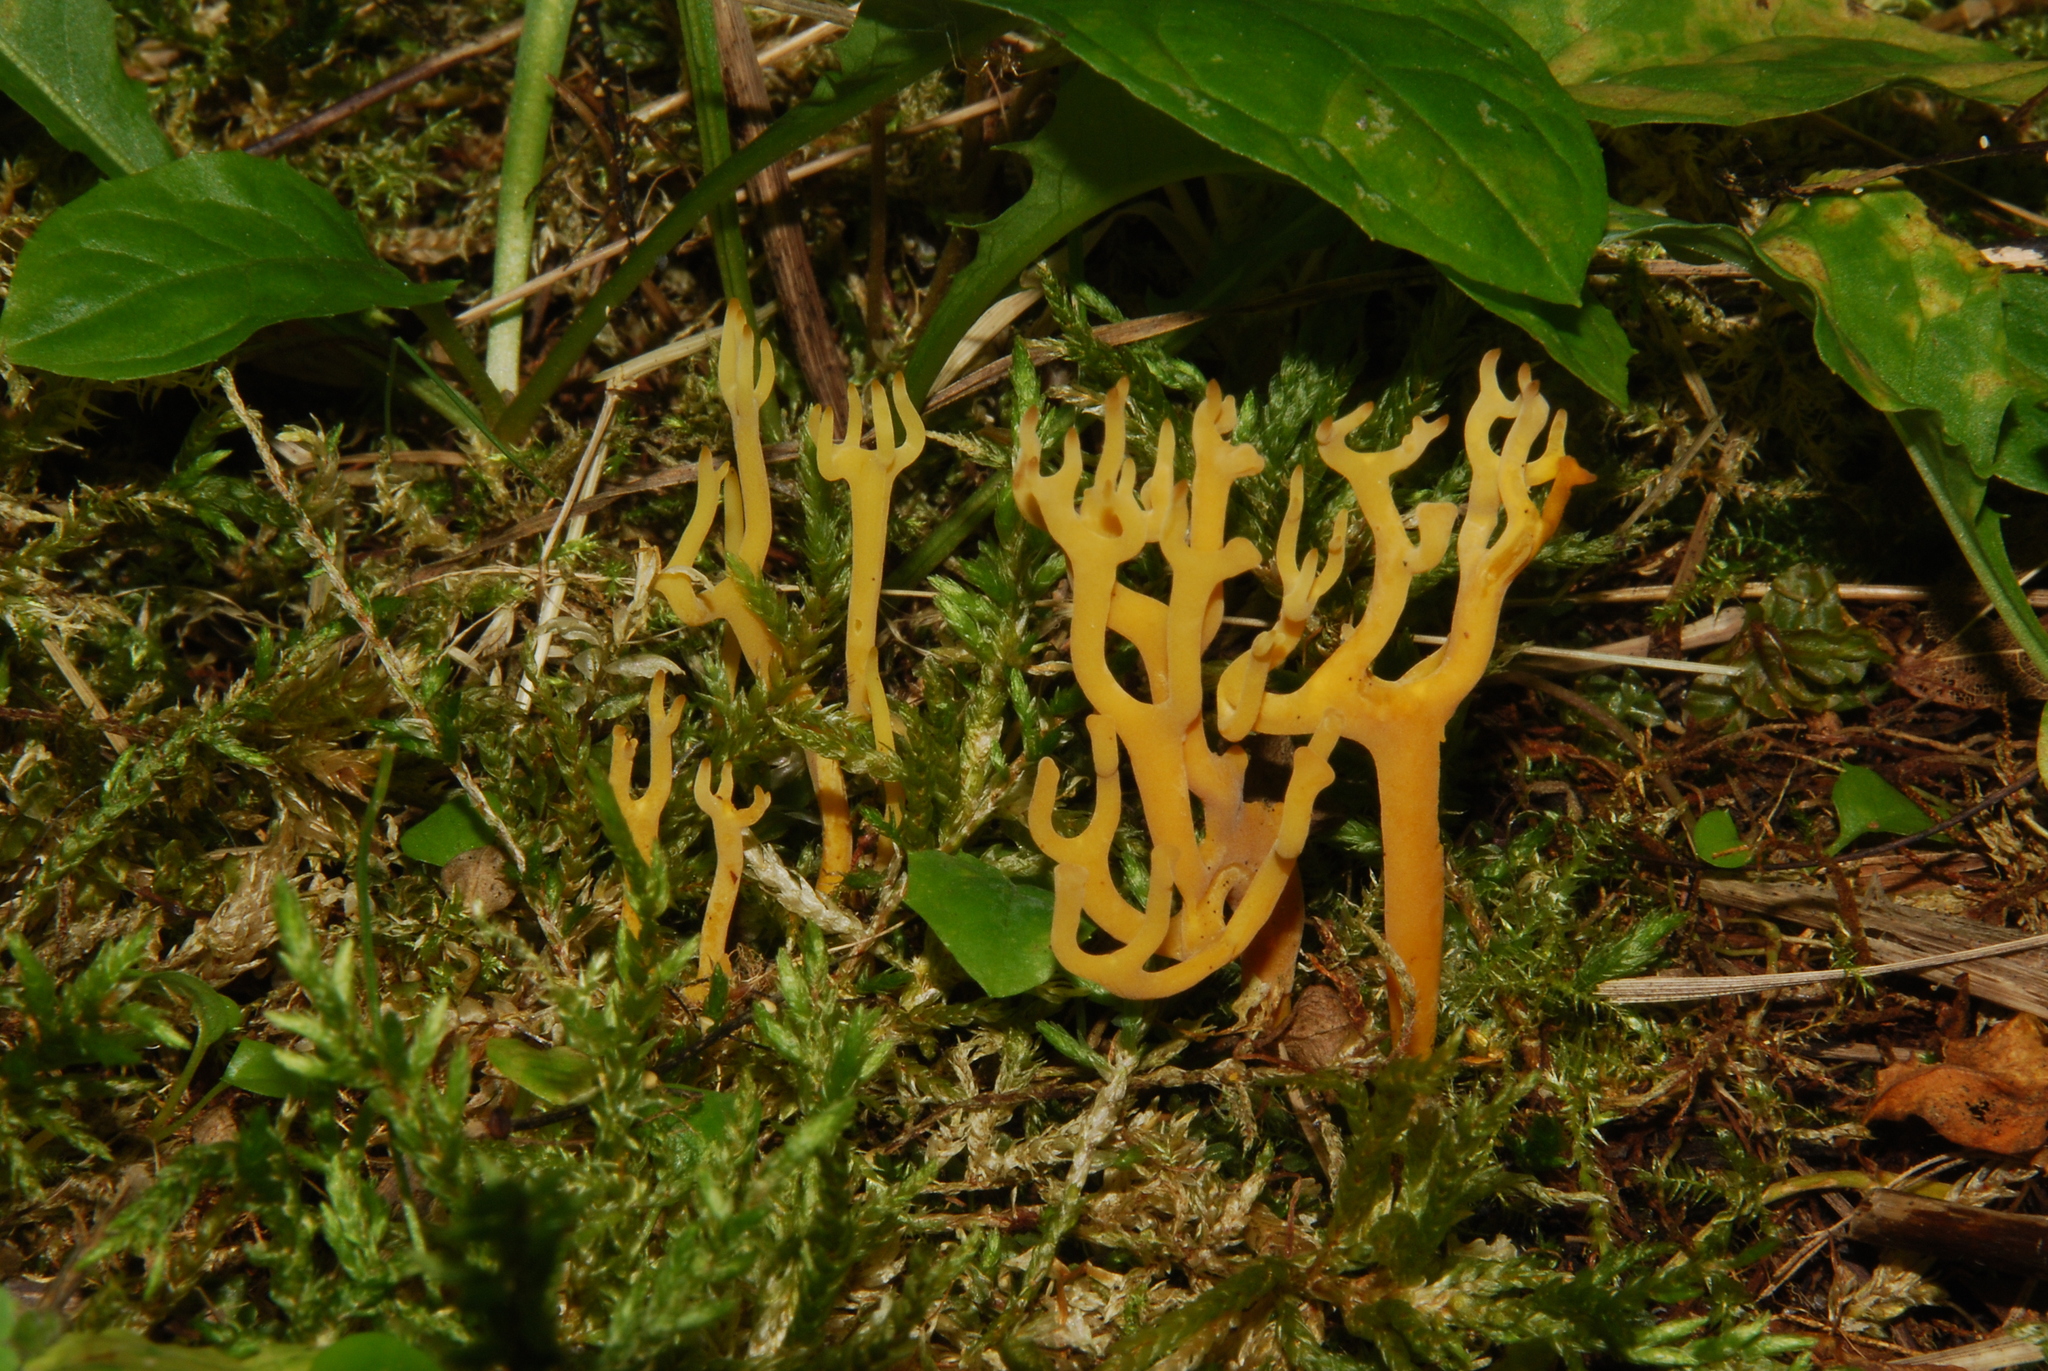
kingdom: Fungi
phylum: Basidiomycota
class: Agaricomycetes
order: Agaricales
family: Clavariaceae
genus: Clavulinopsis
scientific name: Clavulinopsis corniculata
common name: Meadow coral
